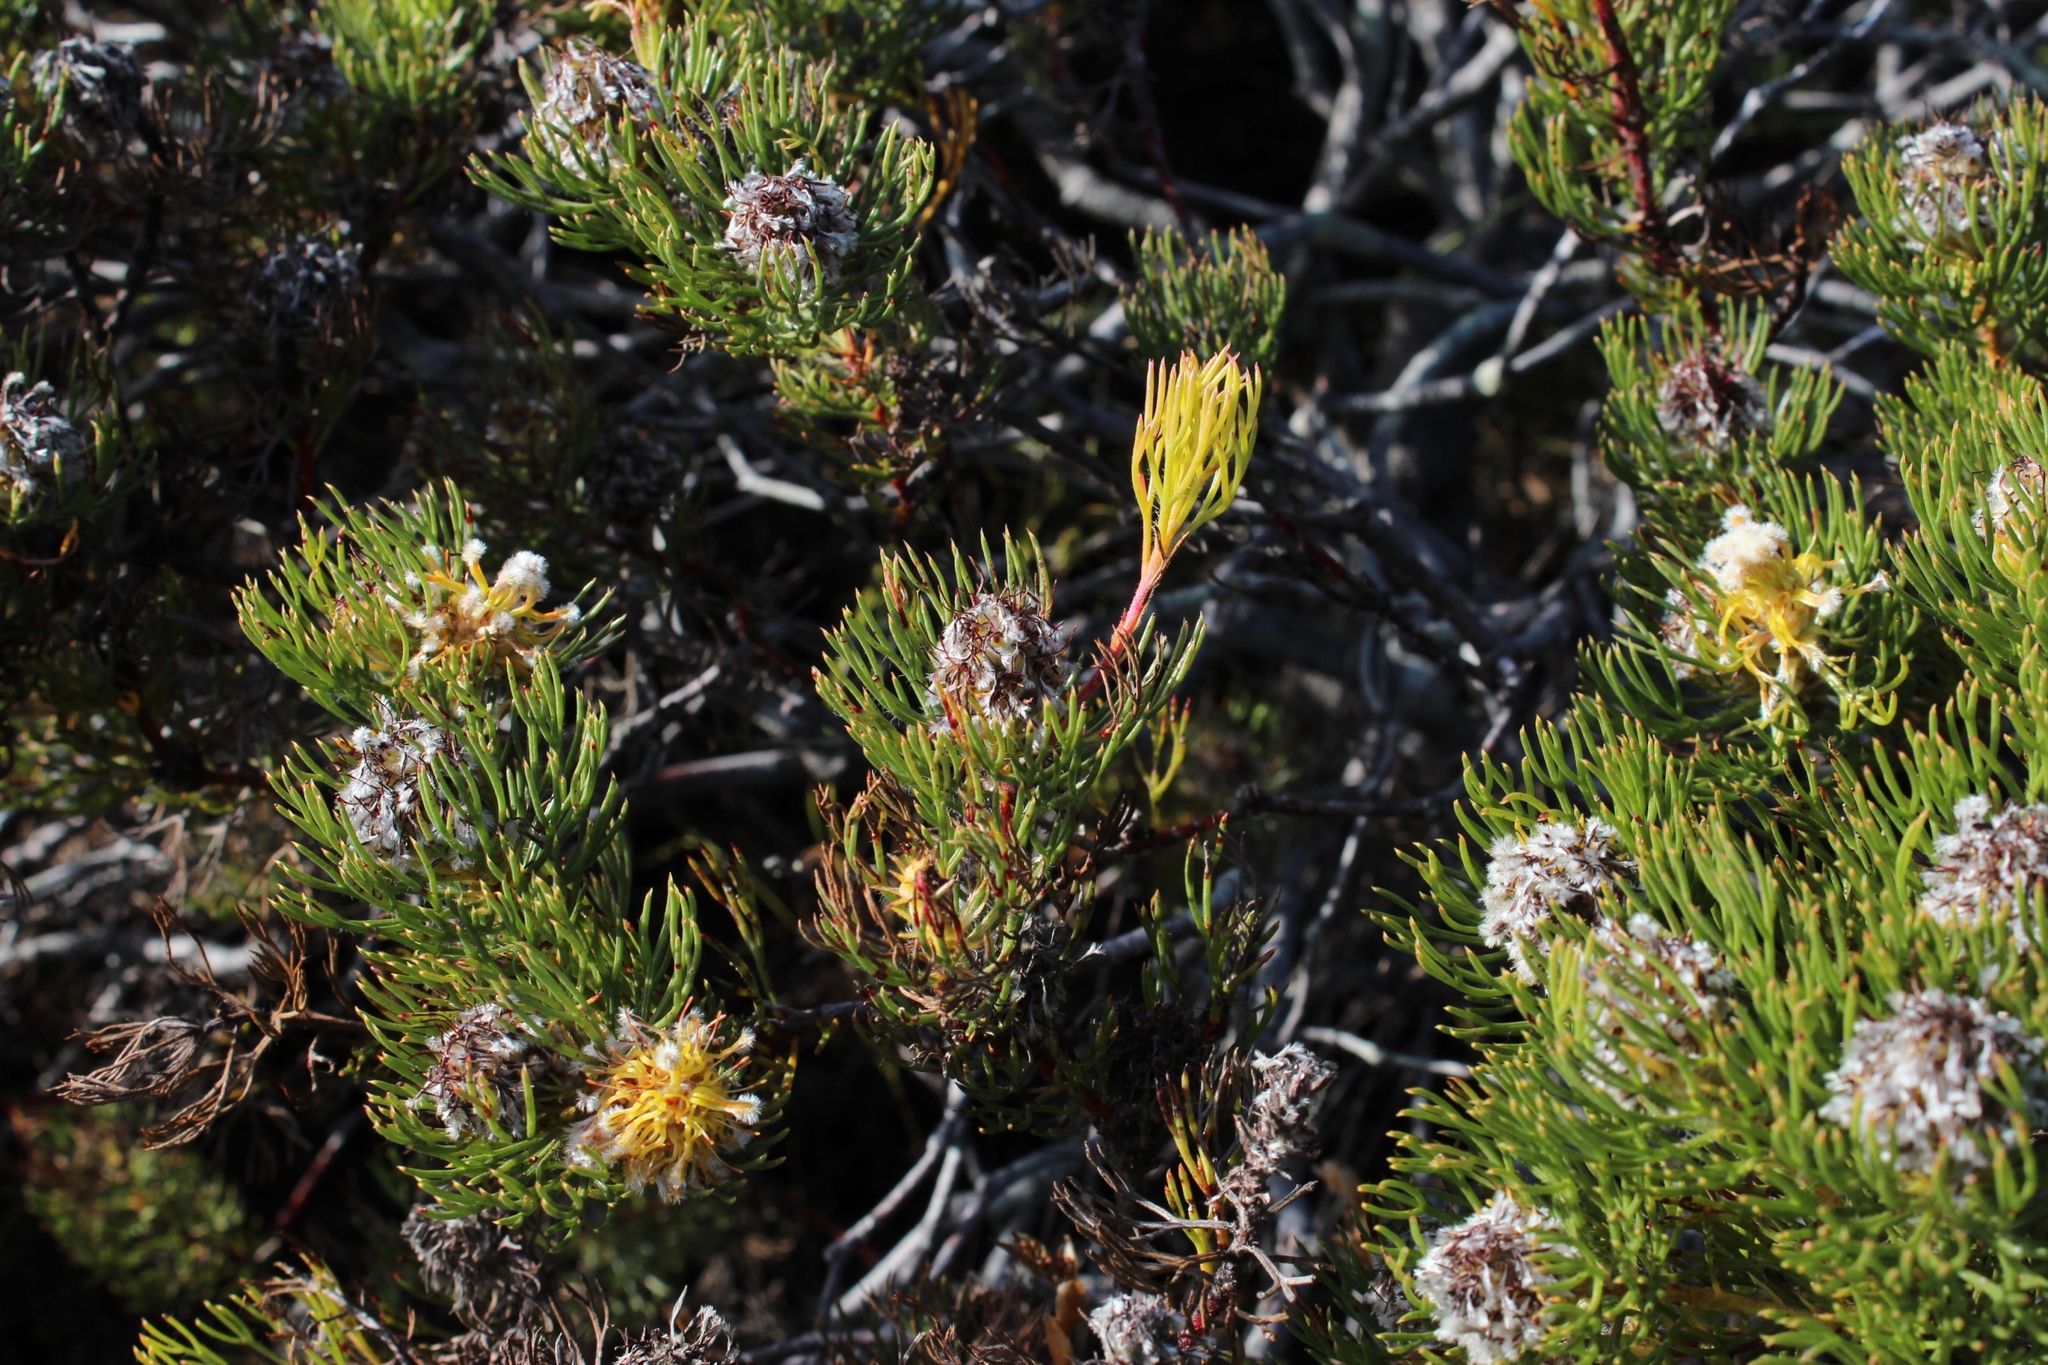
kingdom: Plantae
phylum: Tracheophyta
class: Magnoliopsida
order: Proteales
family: Proteaceae
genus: Serruria
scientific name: Serruria villosa
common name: Golden spiderhead
